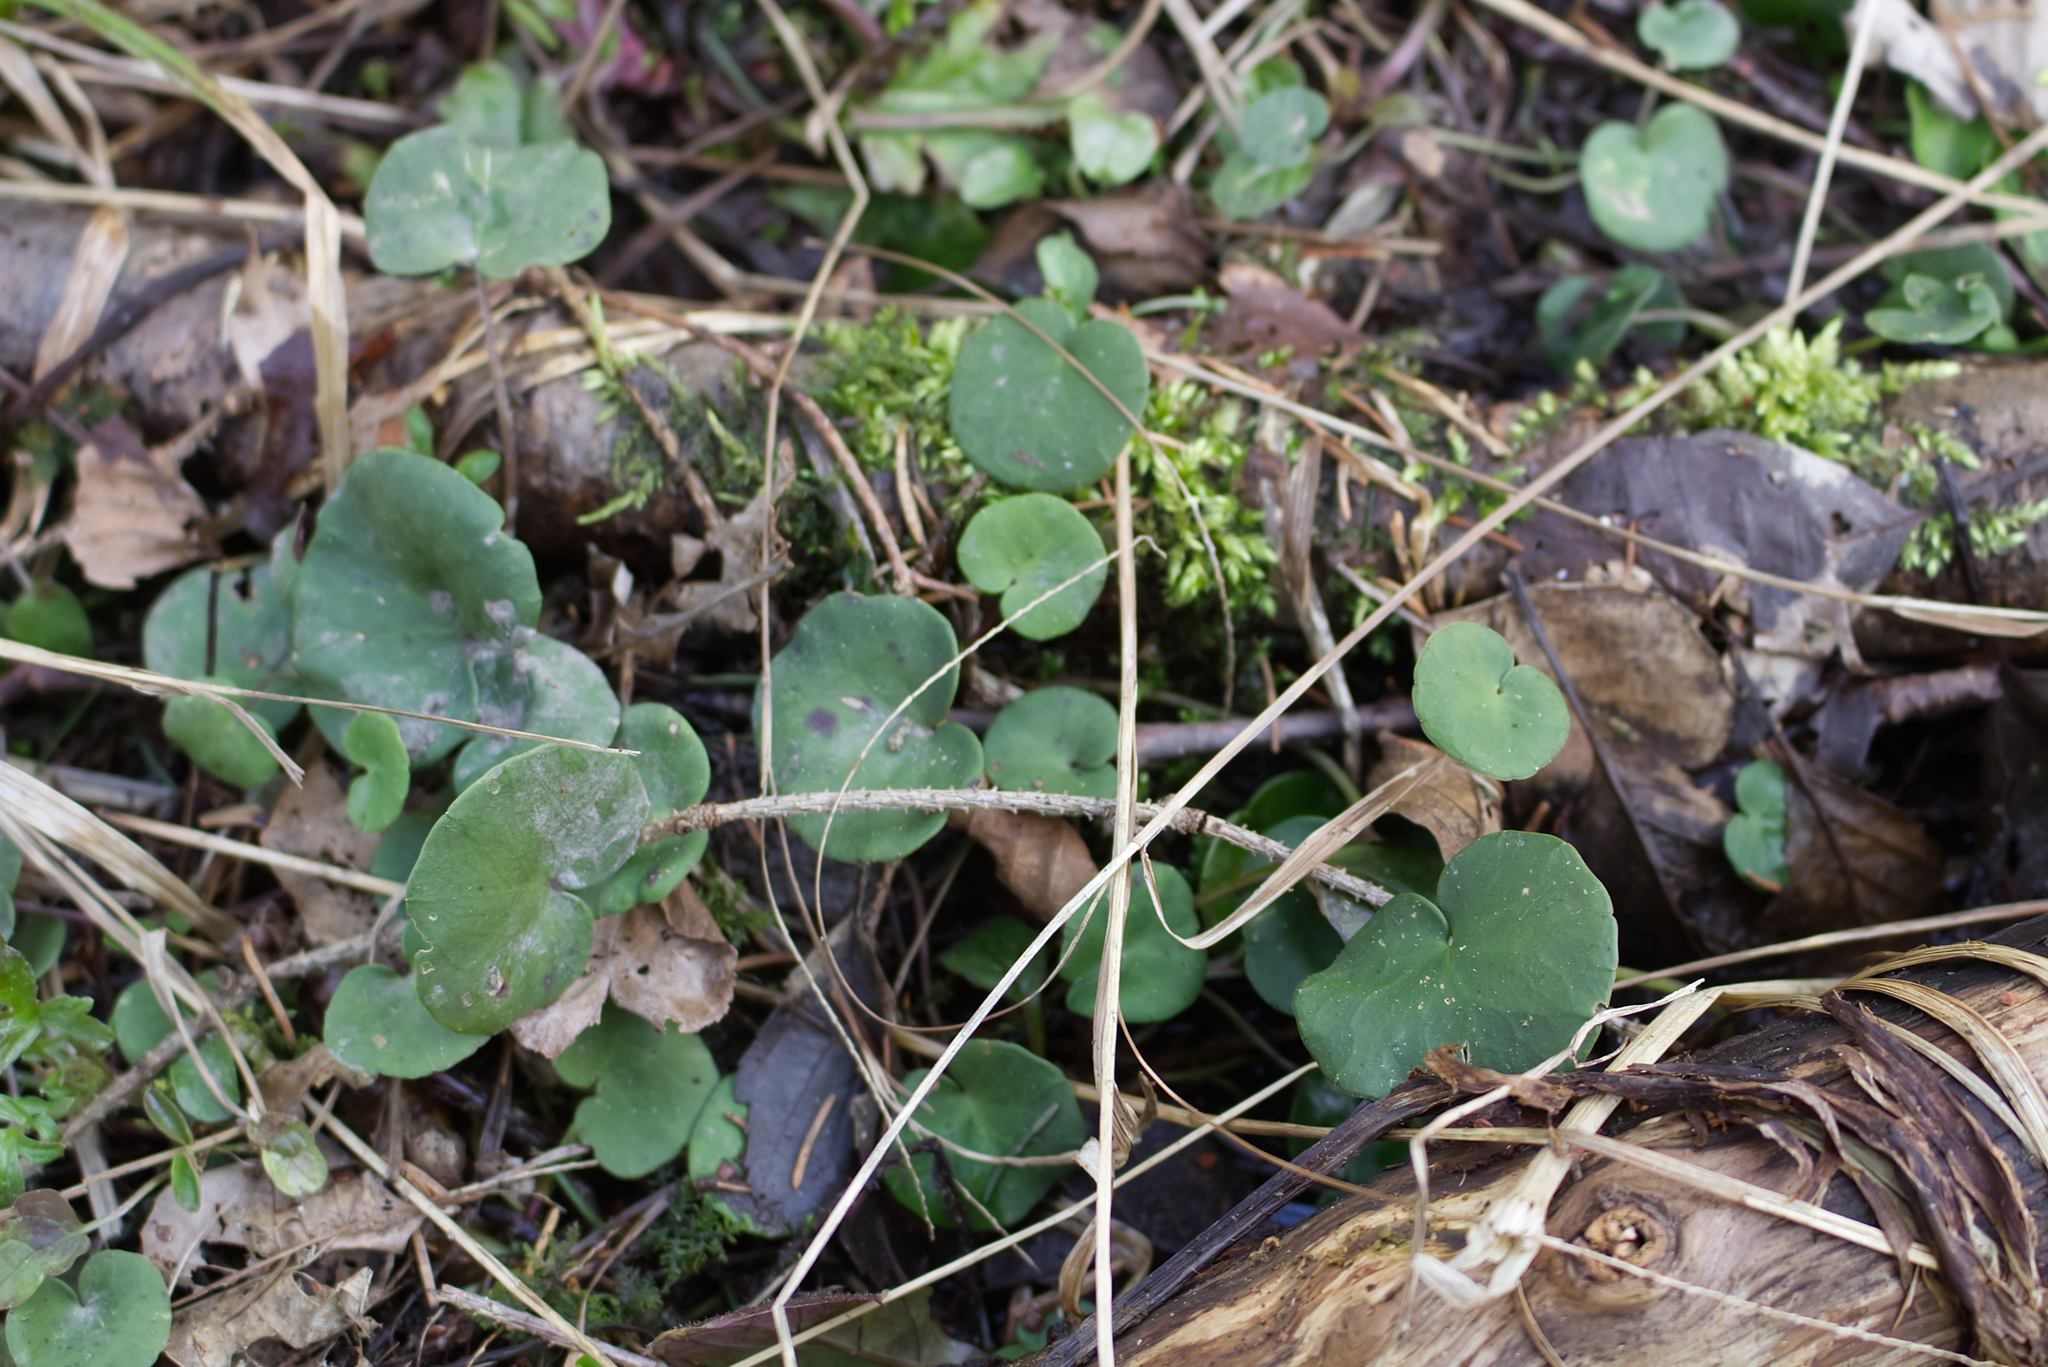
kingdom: Plantae
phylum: Tracheophyta
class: Magnoliopsida
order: Ericales
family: Primulaceae
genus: Soldanella
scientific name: Soldanella montana
